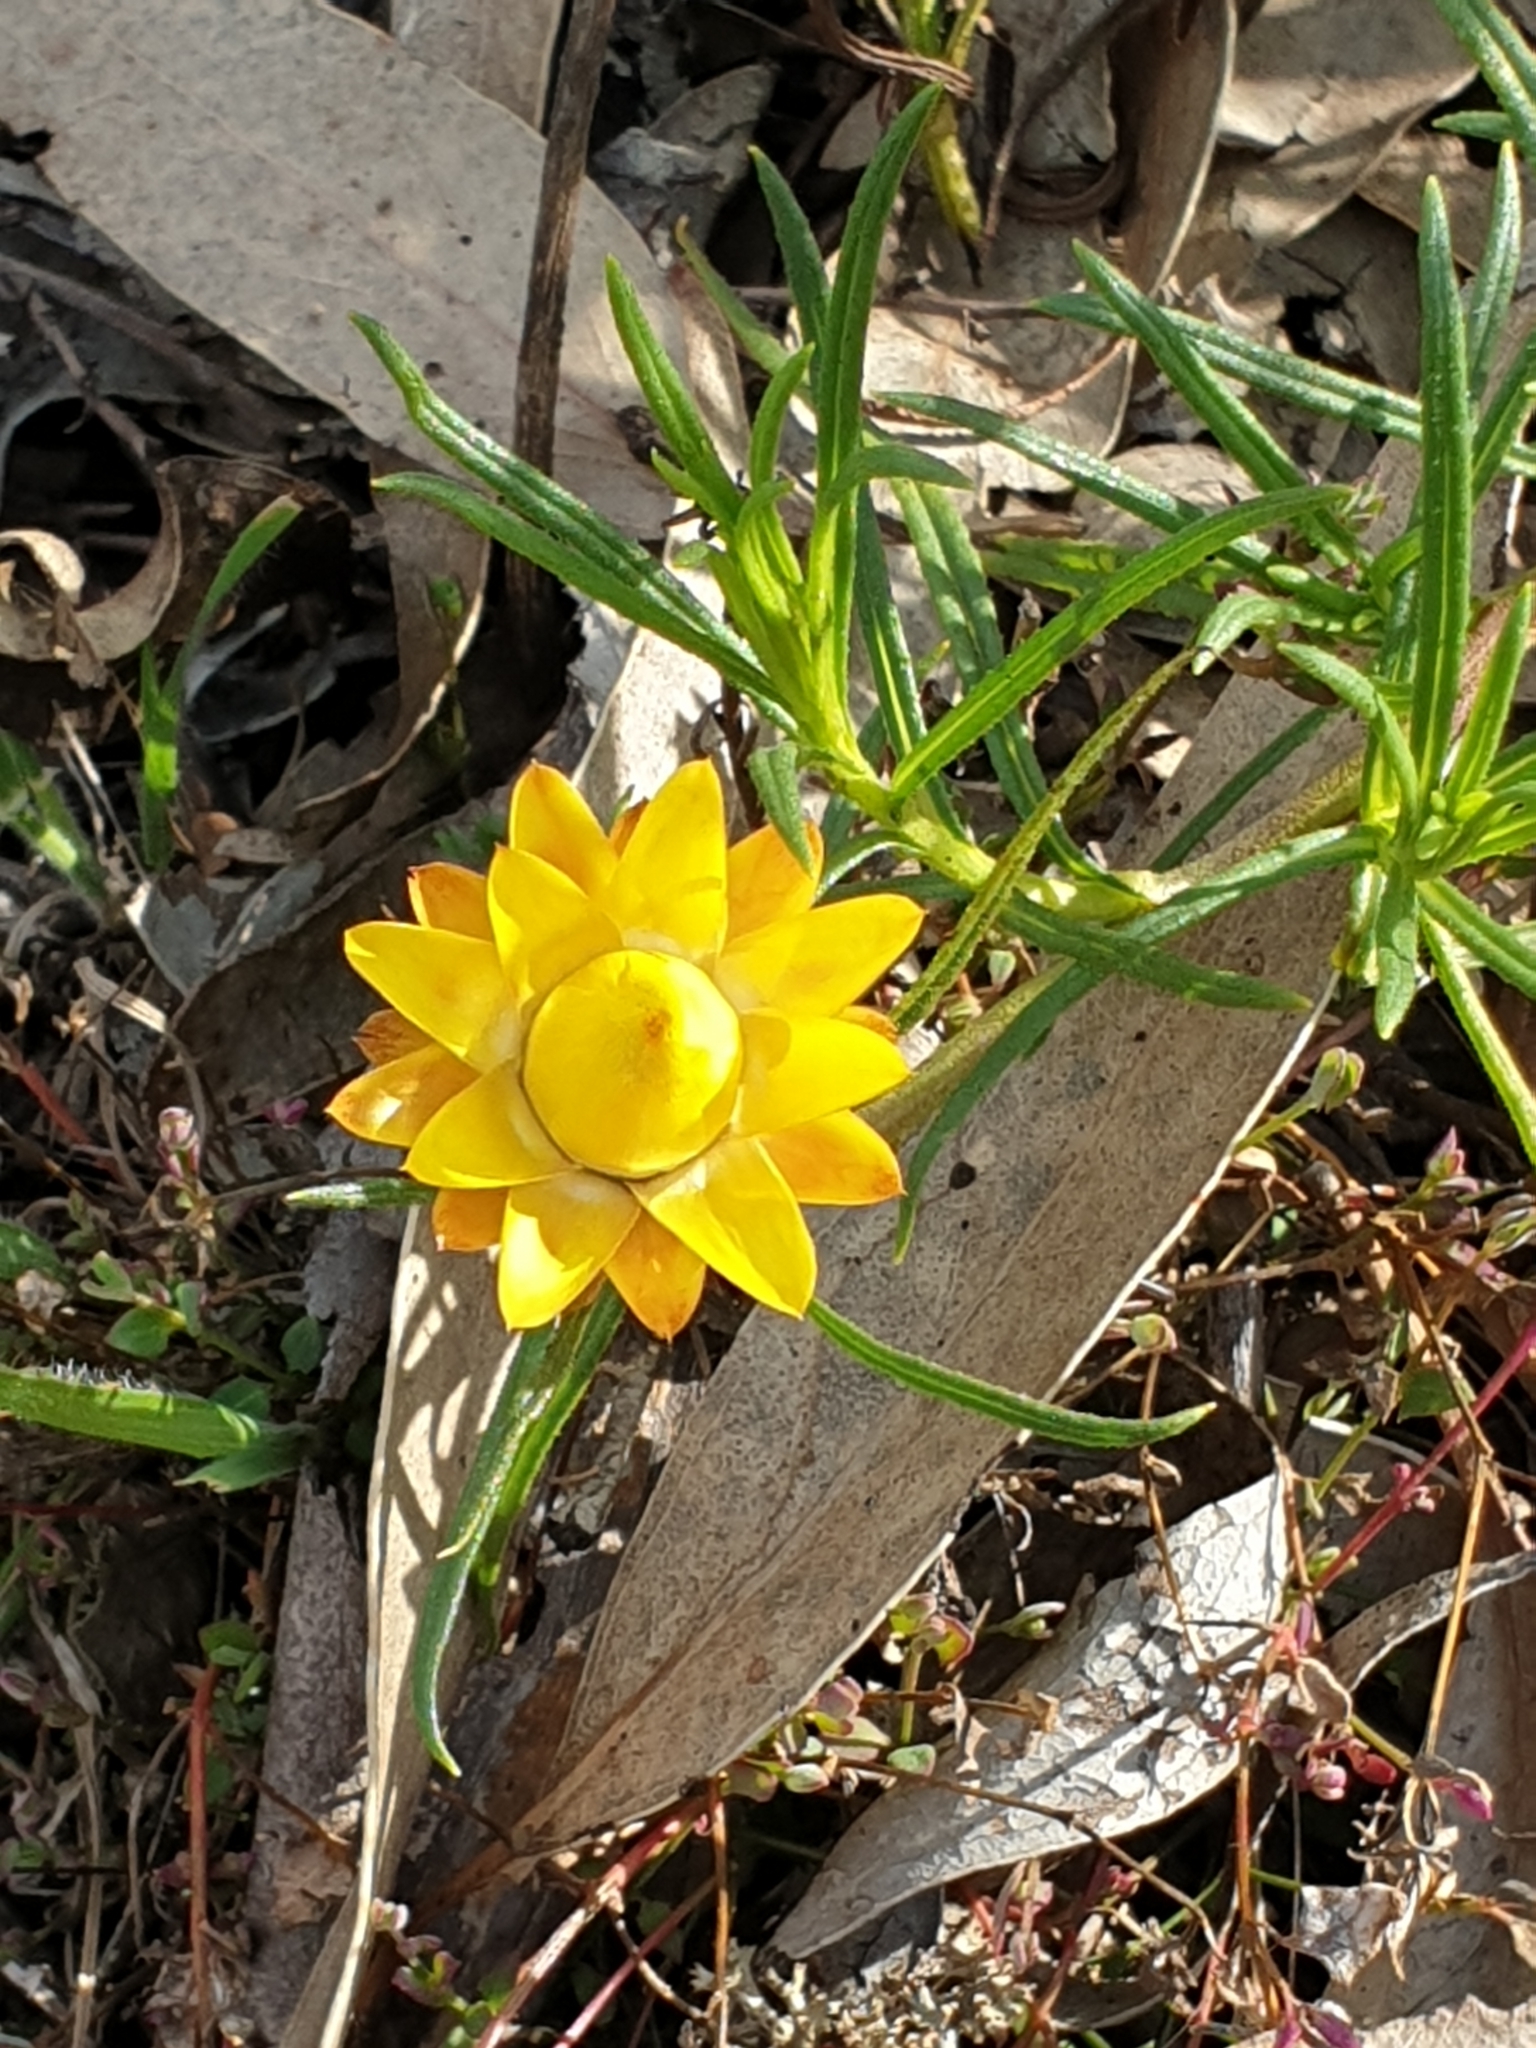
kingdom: Plantae
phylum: Tracheophyta
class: Magnoliopsida
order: Asterales
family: Asteraceae
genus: Xerochrysum
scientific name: Xerochrysum viscosum
